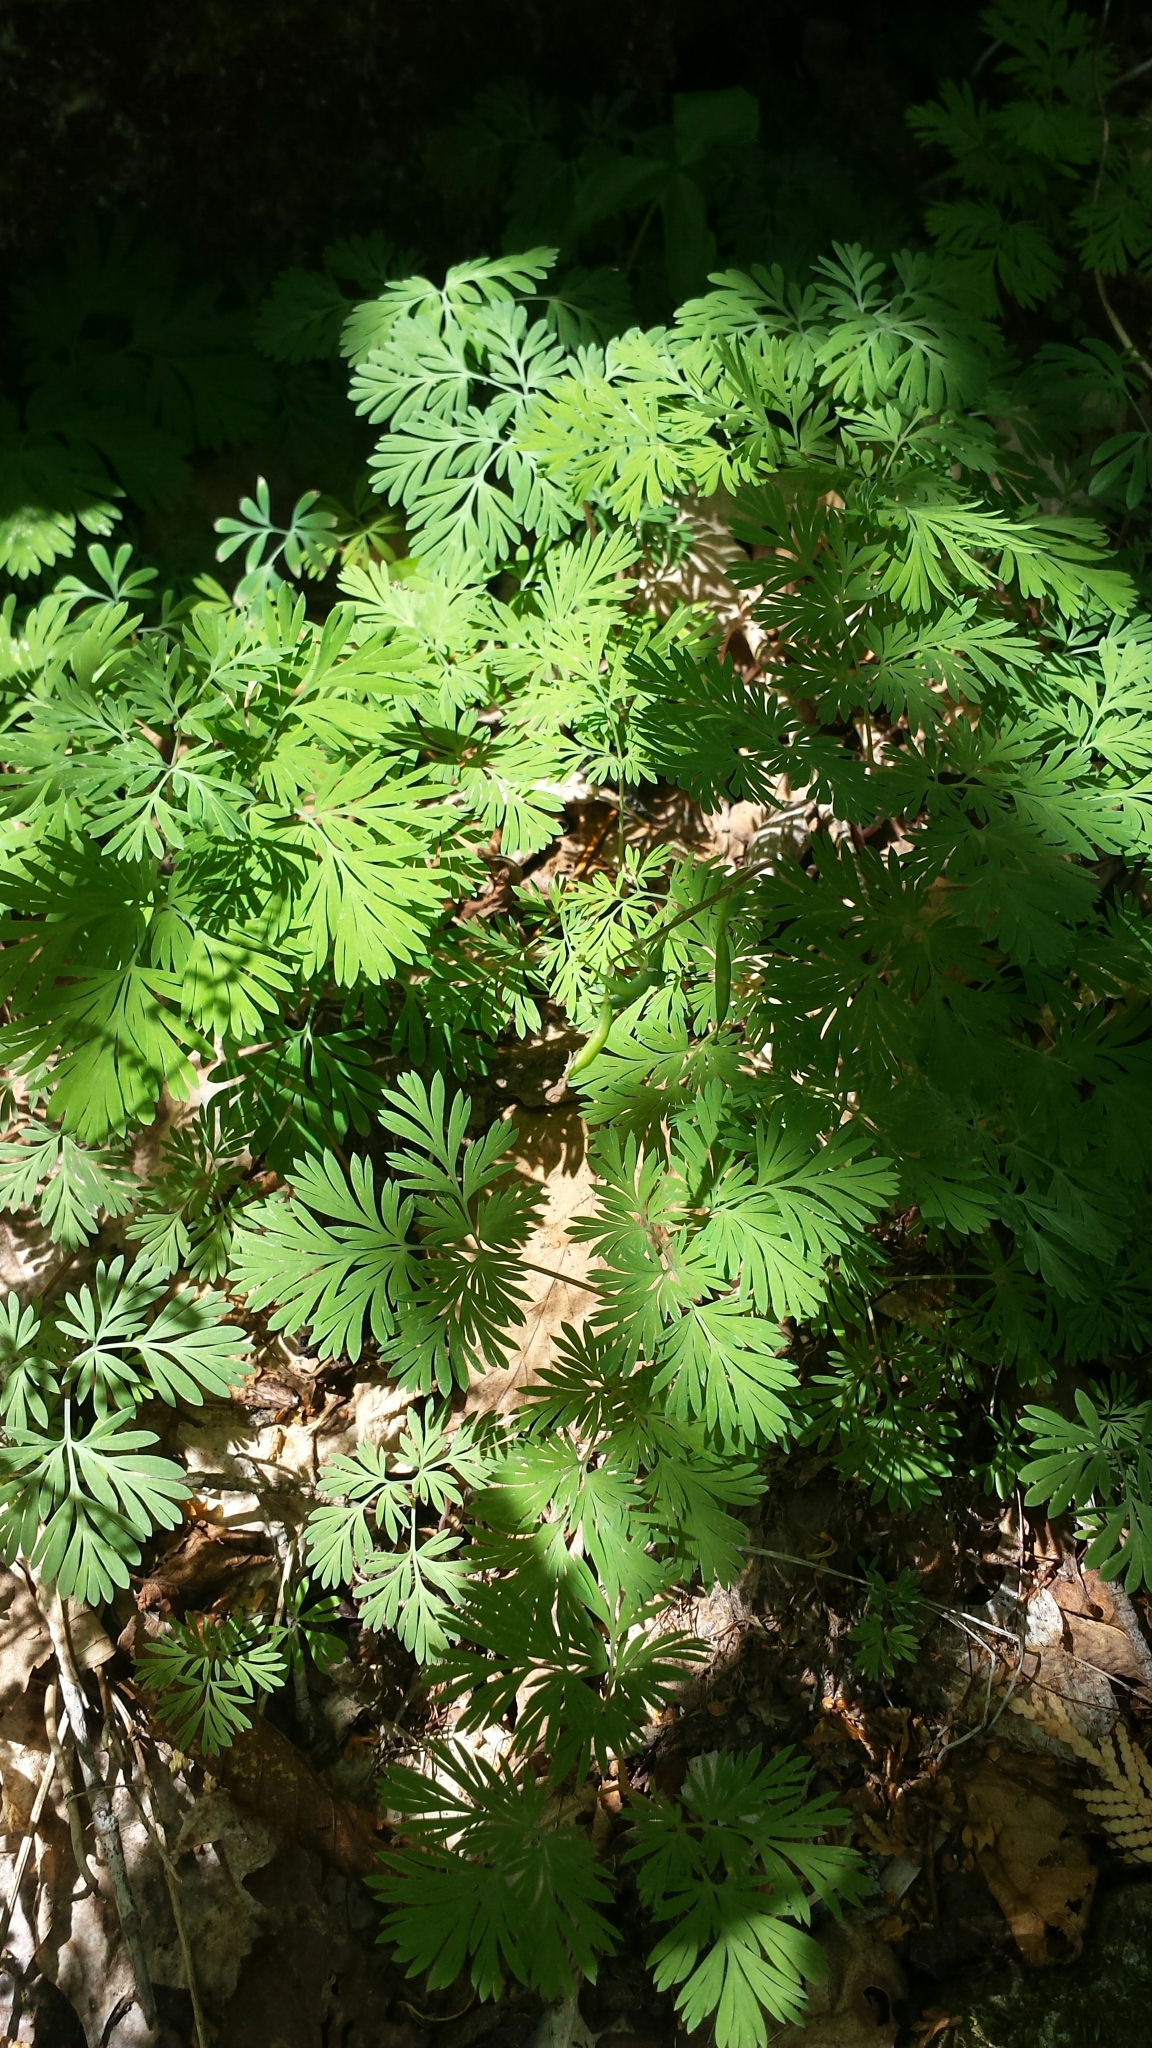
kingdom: Plantae
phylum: Tracheophyta
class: Magnoliopsida
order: Ranunculales
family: Papaveraceae
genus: Dicentra
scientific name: Dicentra canadensis
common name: Squirrel-corn
